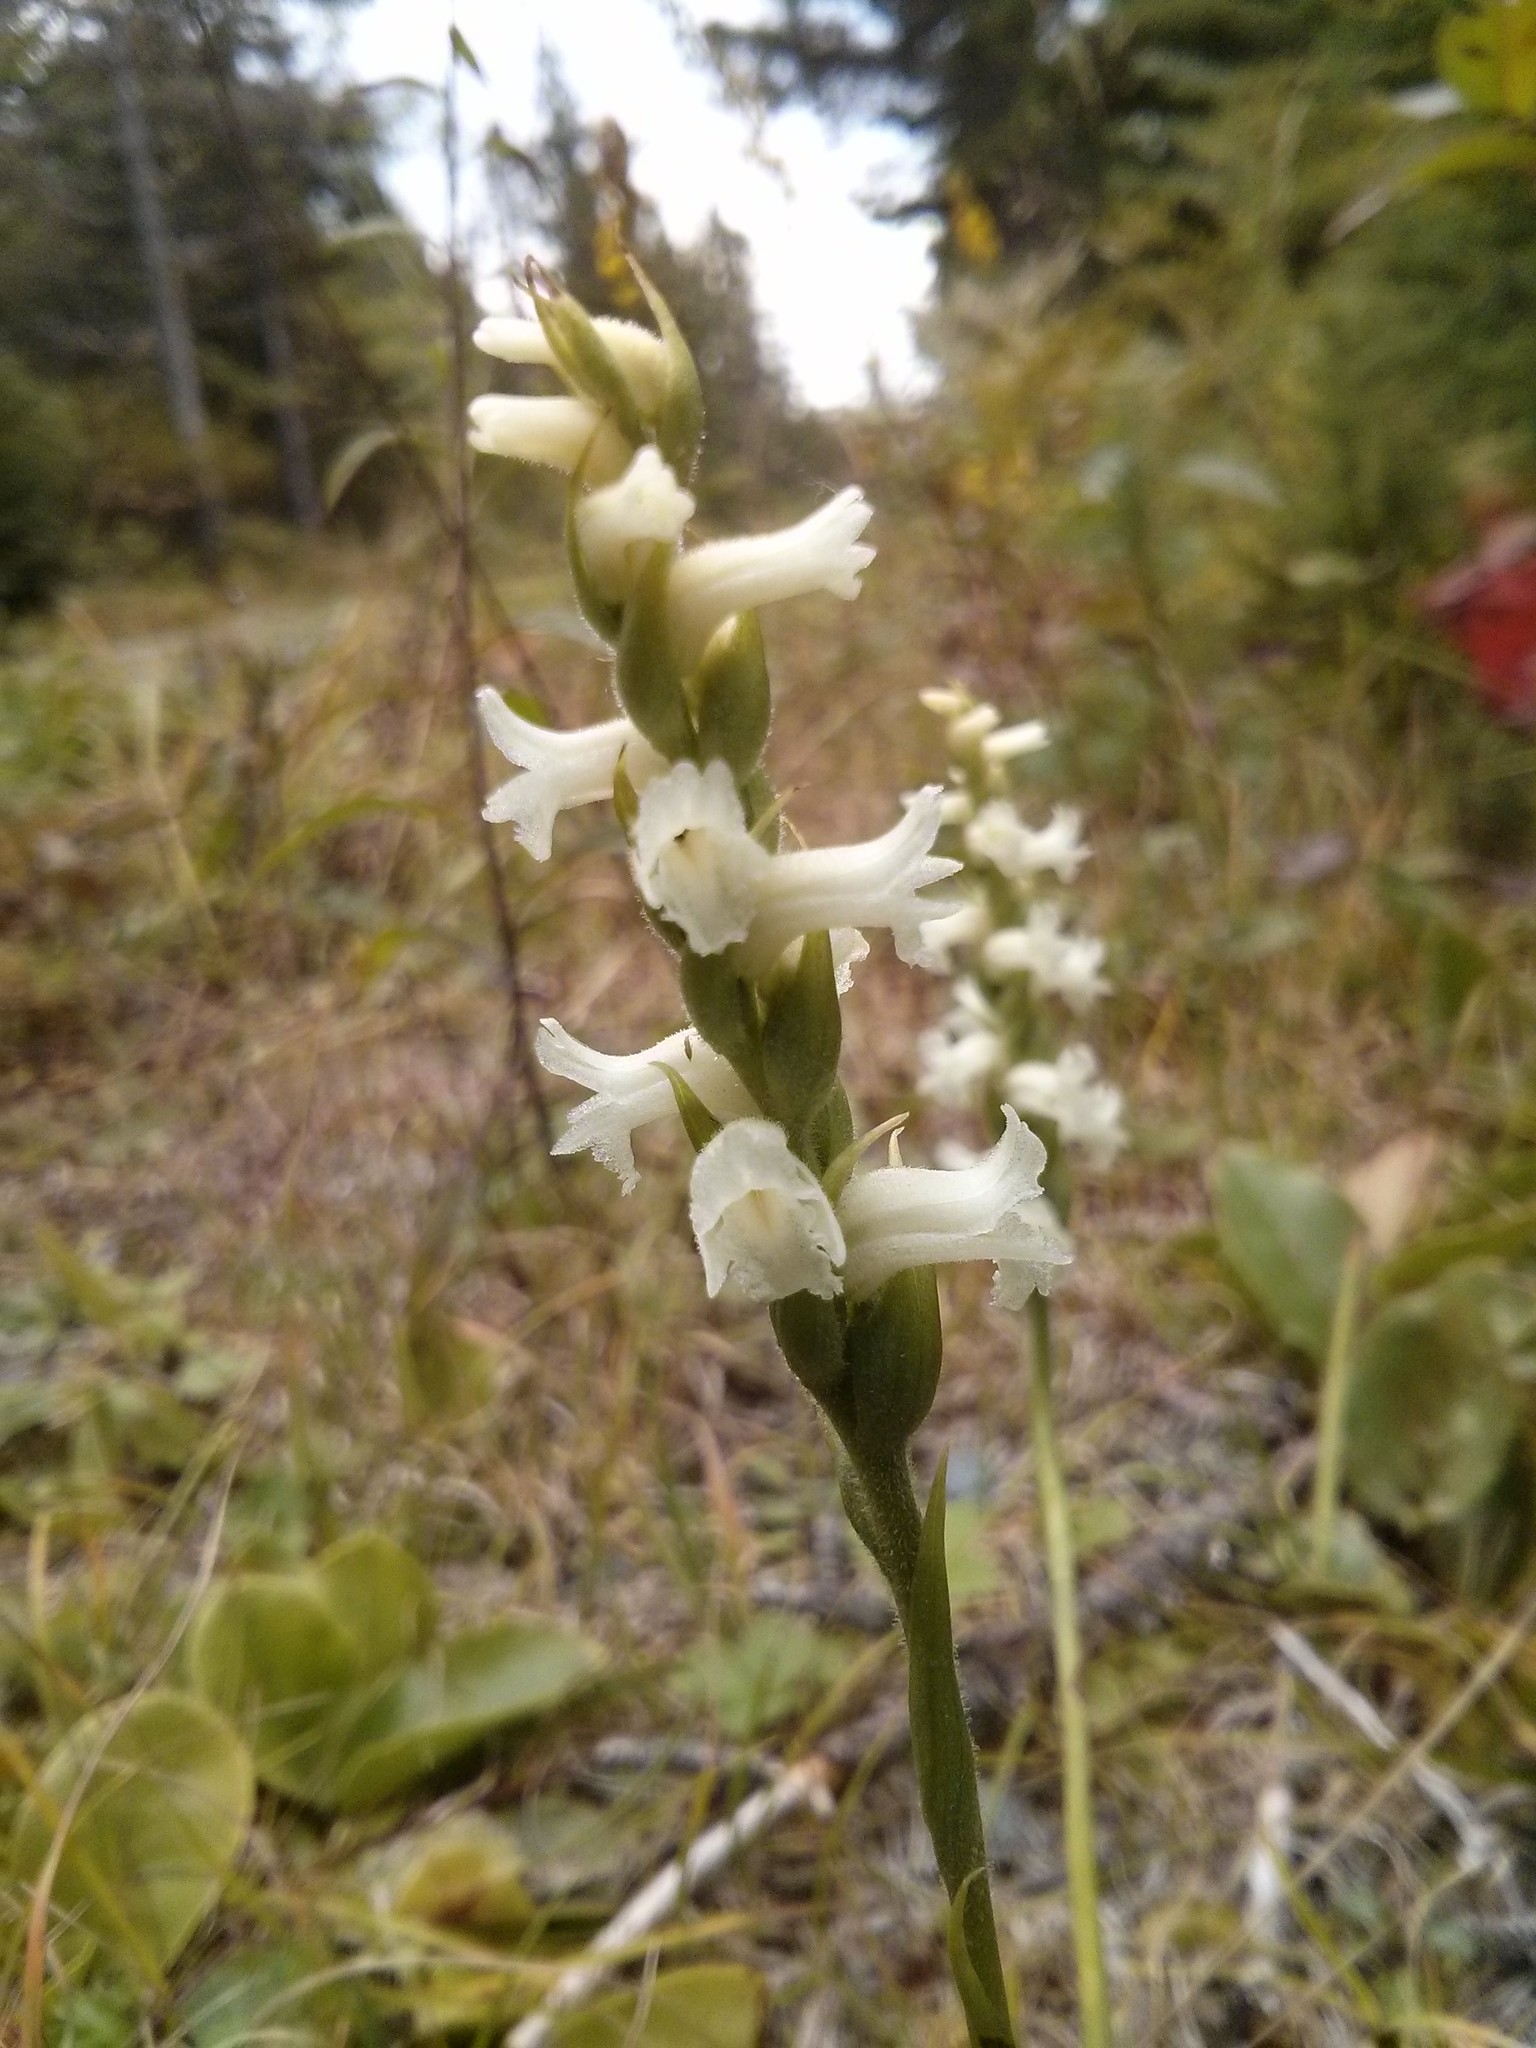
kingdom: Plantae
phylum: Tracheophyta
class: Liliopsida
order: Asparagales
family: Orchidaceae
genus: Spiranthes
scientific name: Spiranthes arcisepala
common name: Appalachian ladies'-tresses
